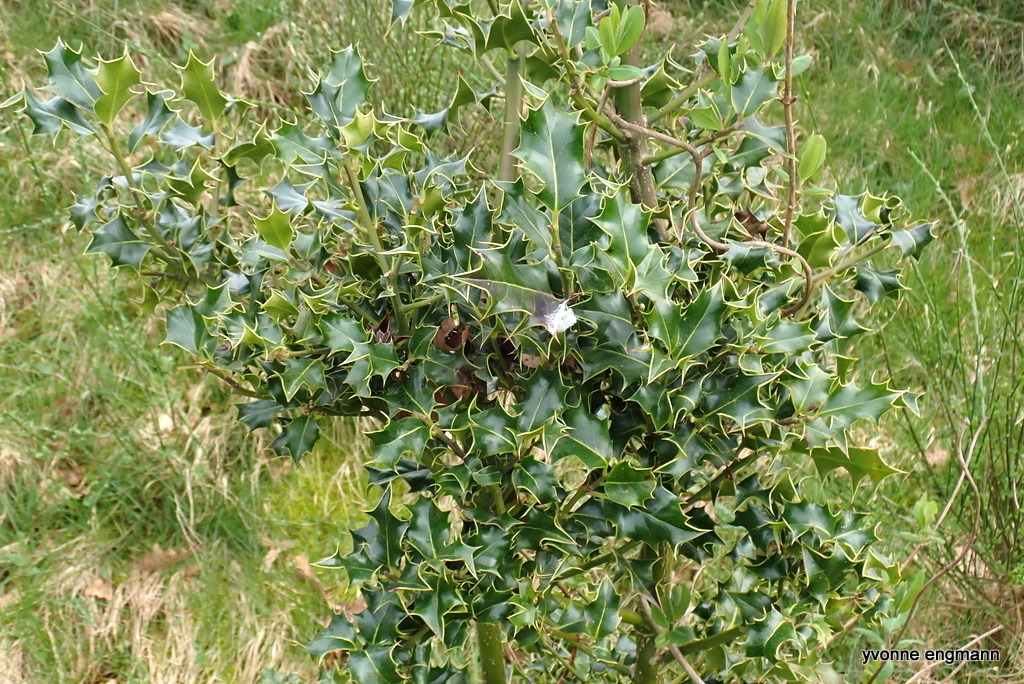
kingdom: Plantae
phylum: Tracheophyta
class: Magnoliopsida
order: Aquifoliales
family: Aquifoliaceae
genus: Ilex
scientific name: Ilex aquifolium
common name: English holly
